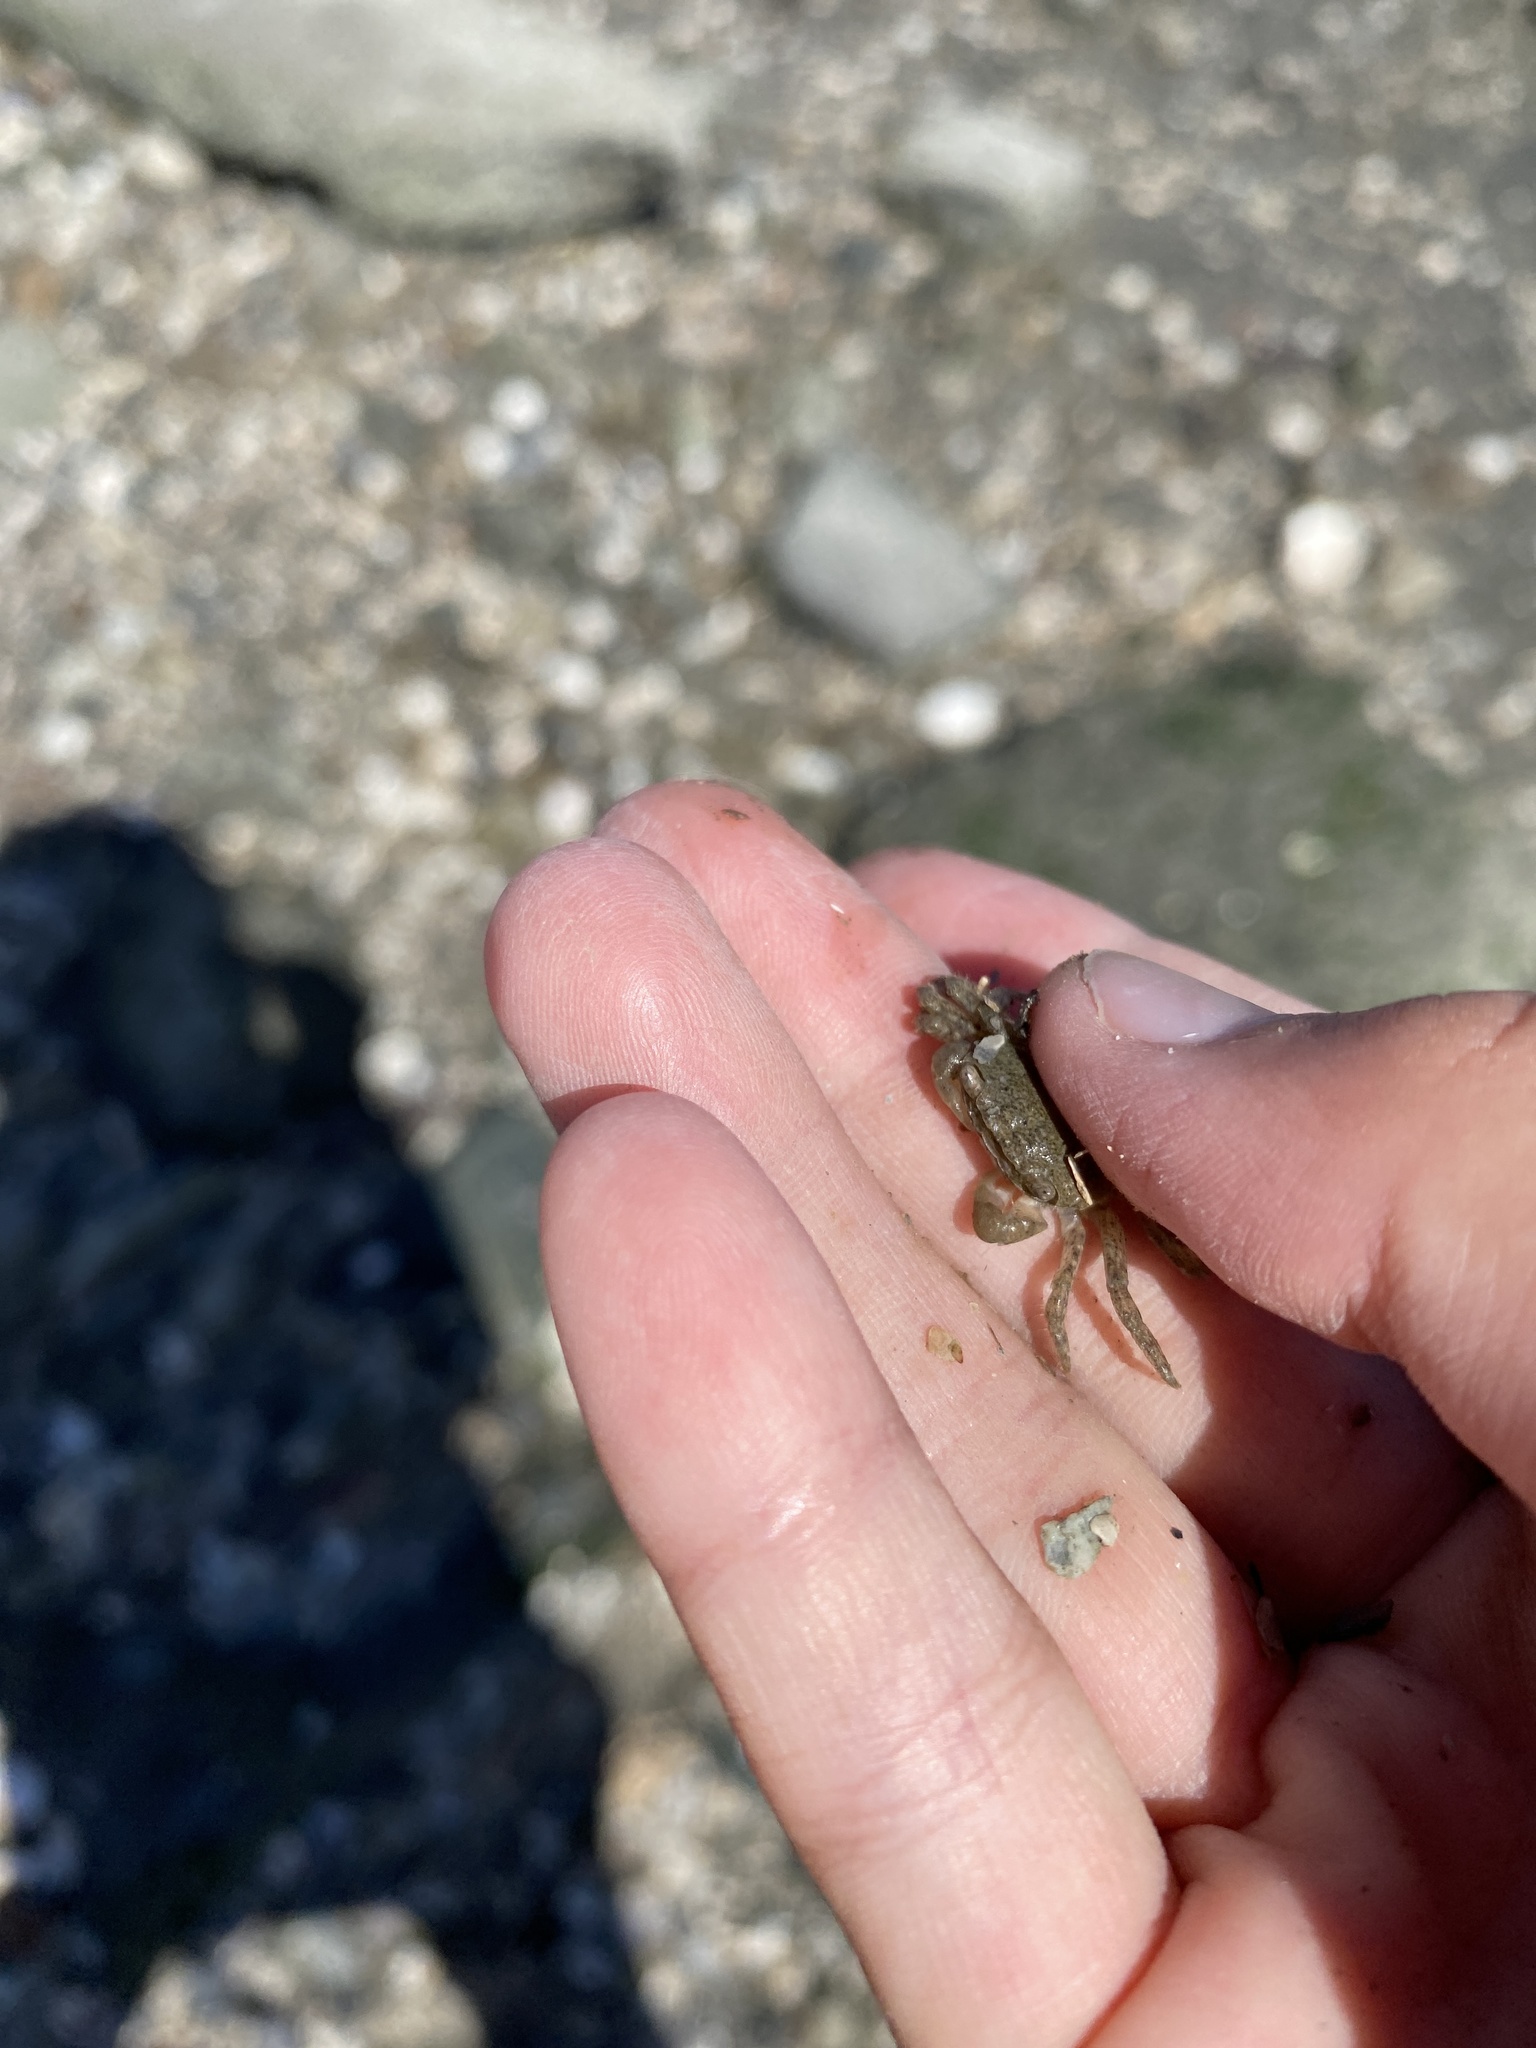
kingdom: Animalia
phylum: Arthropoda
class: Malacostraca
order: Decapoda
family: Varunidae
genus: Hemigrapsus
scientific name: Hemigrapsus oregonensis
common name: Yellow shore crab
